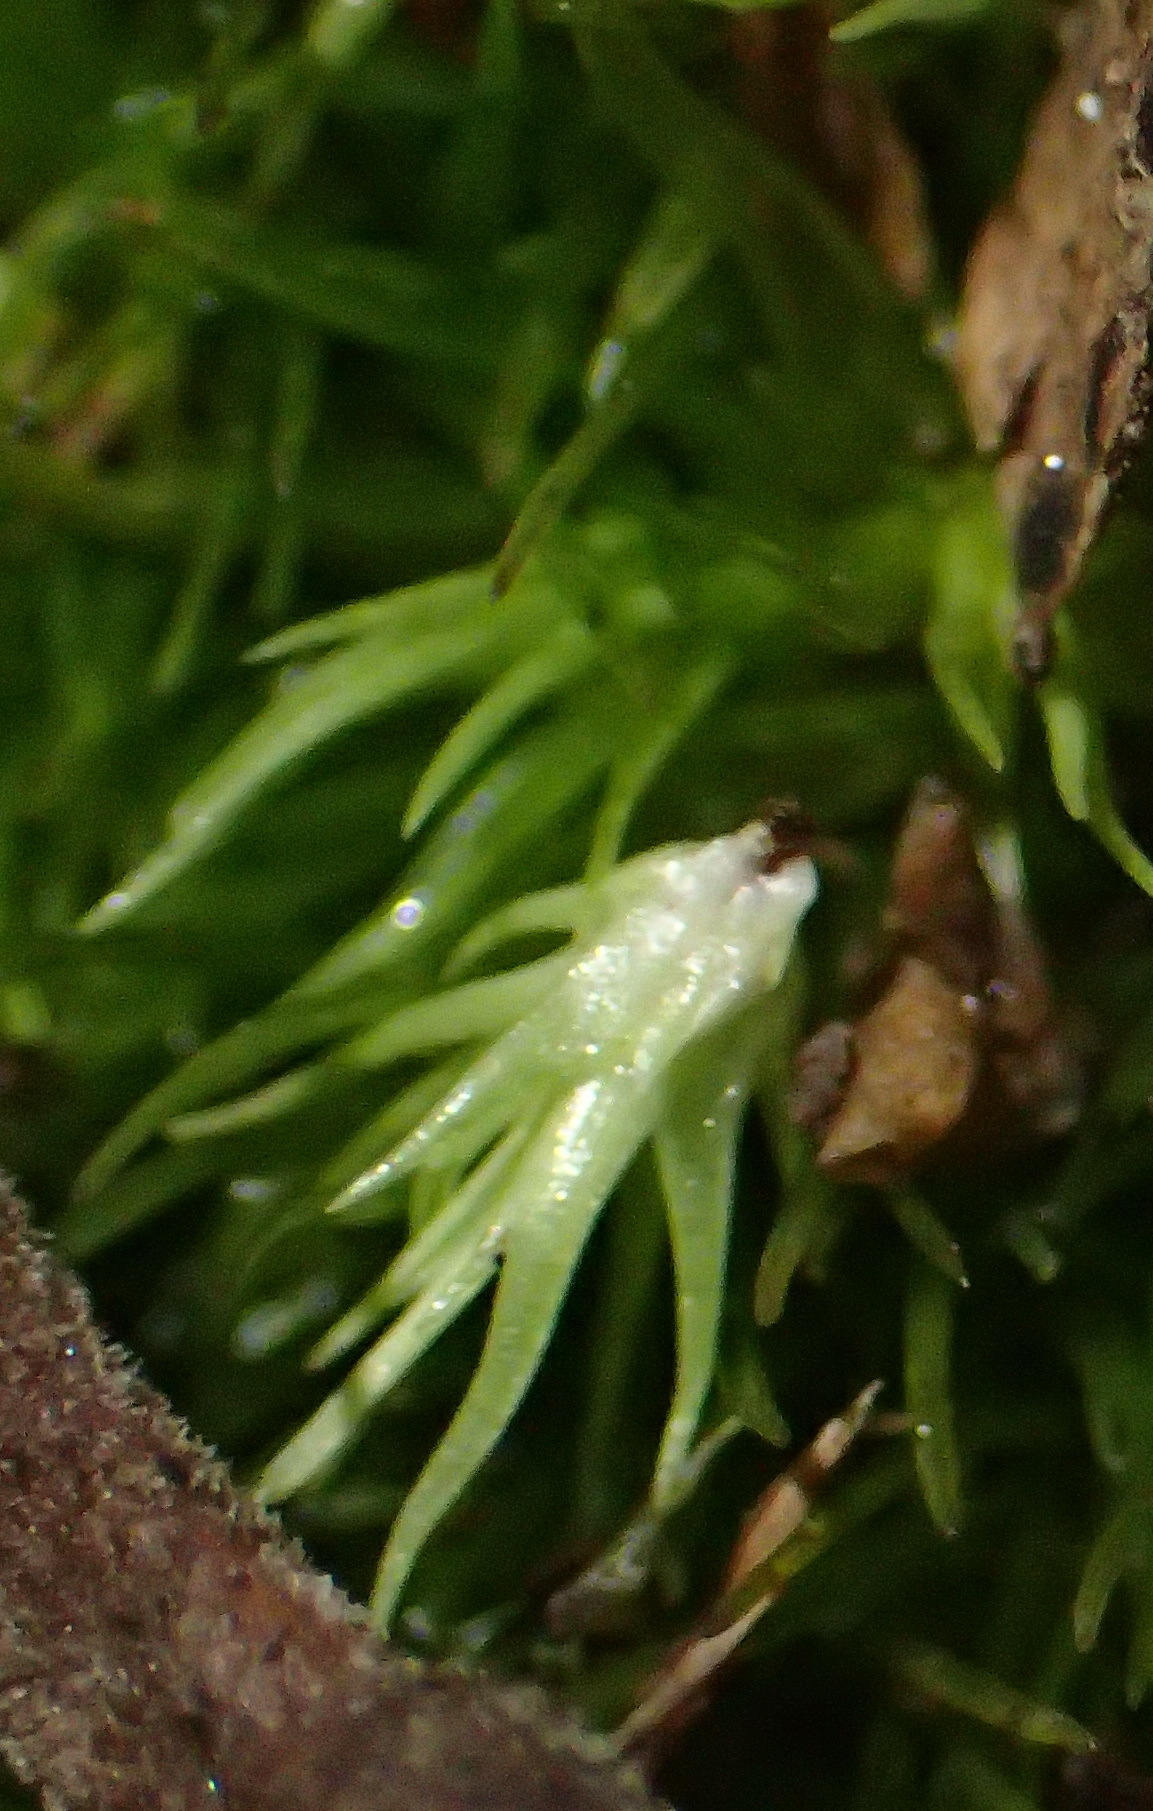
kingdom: Plantae
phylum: Bryophyta
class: Bryopsida
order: Dicranales
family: Leucobryaceae
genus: Leucobryum
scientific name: Leucobryum acutifolium
